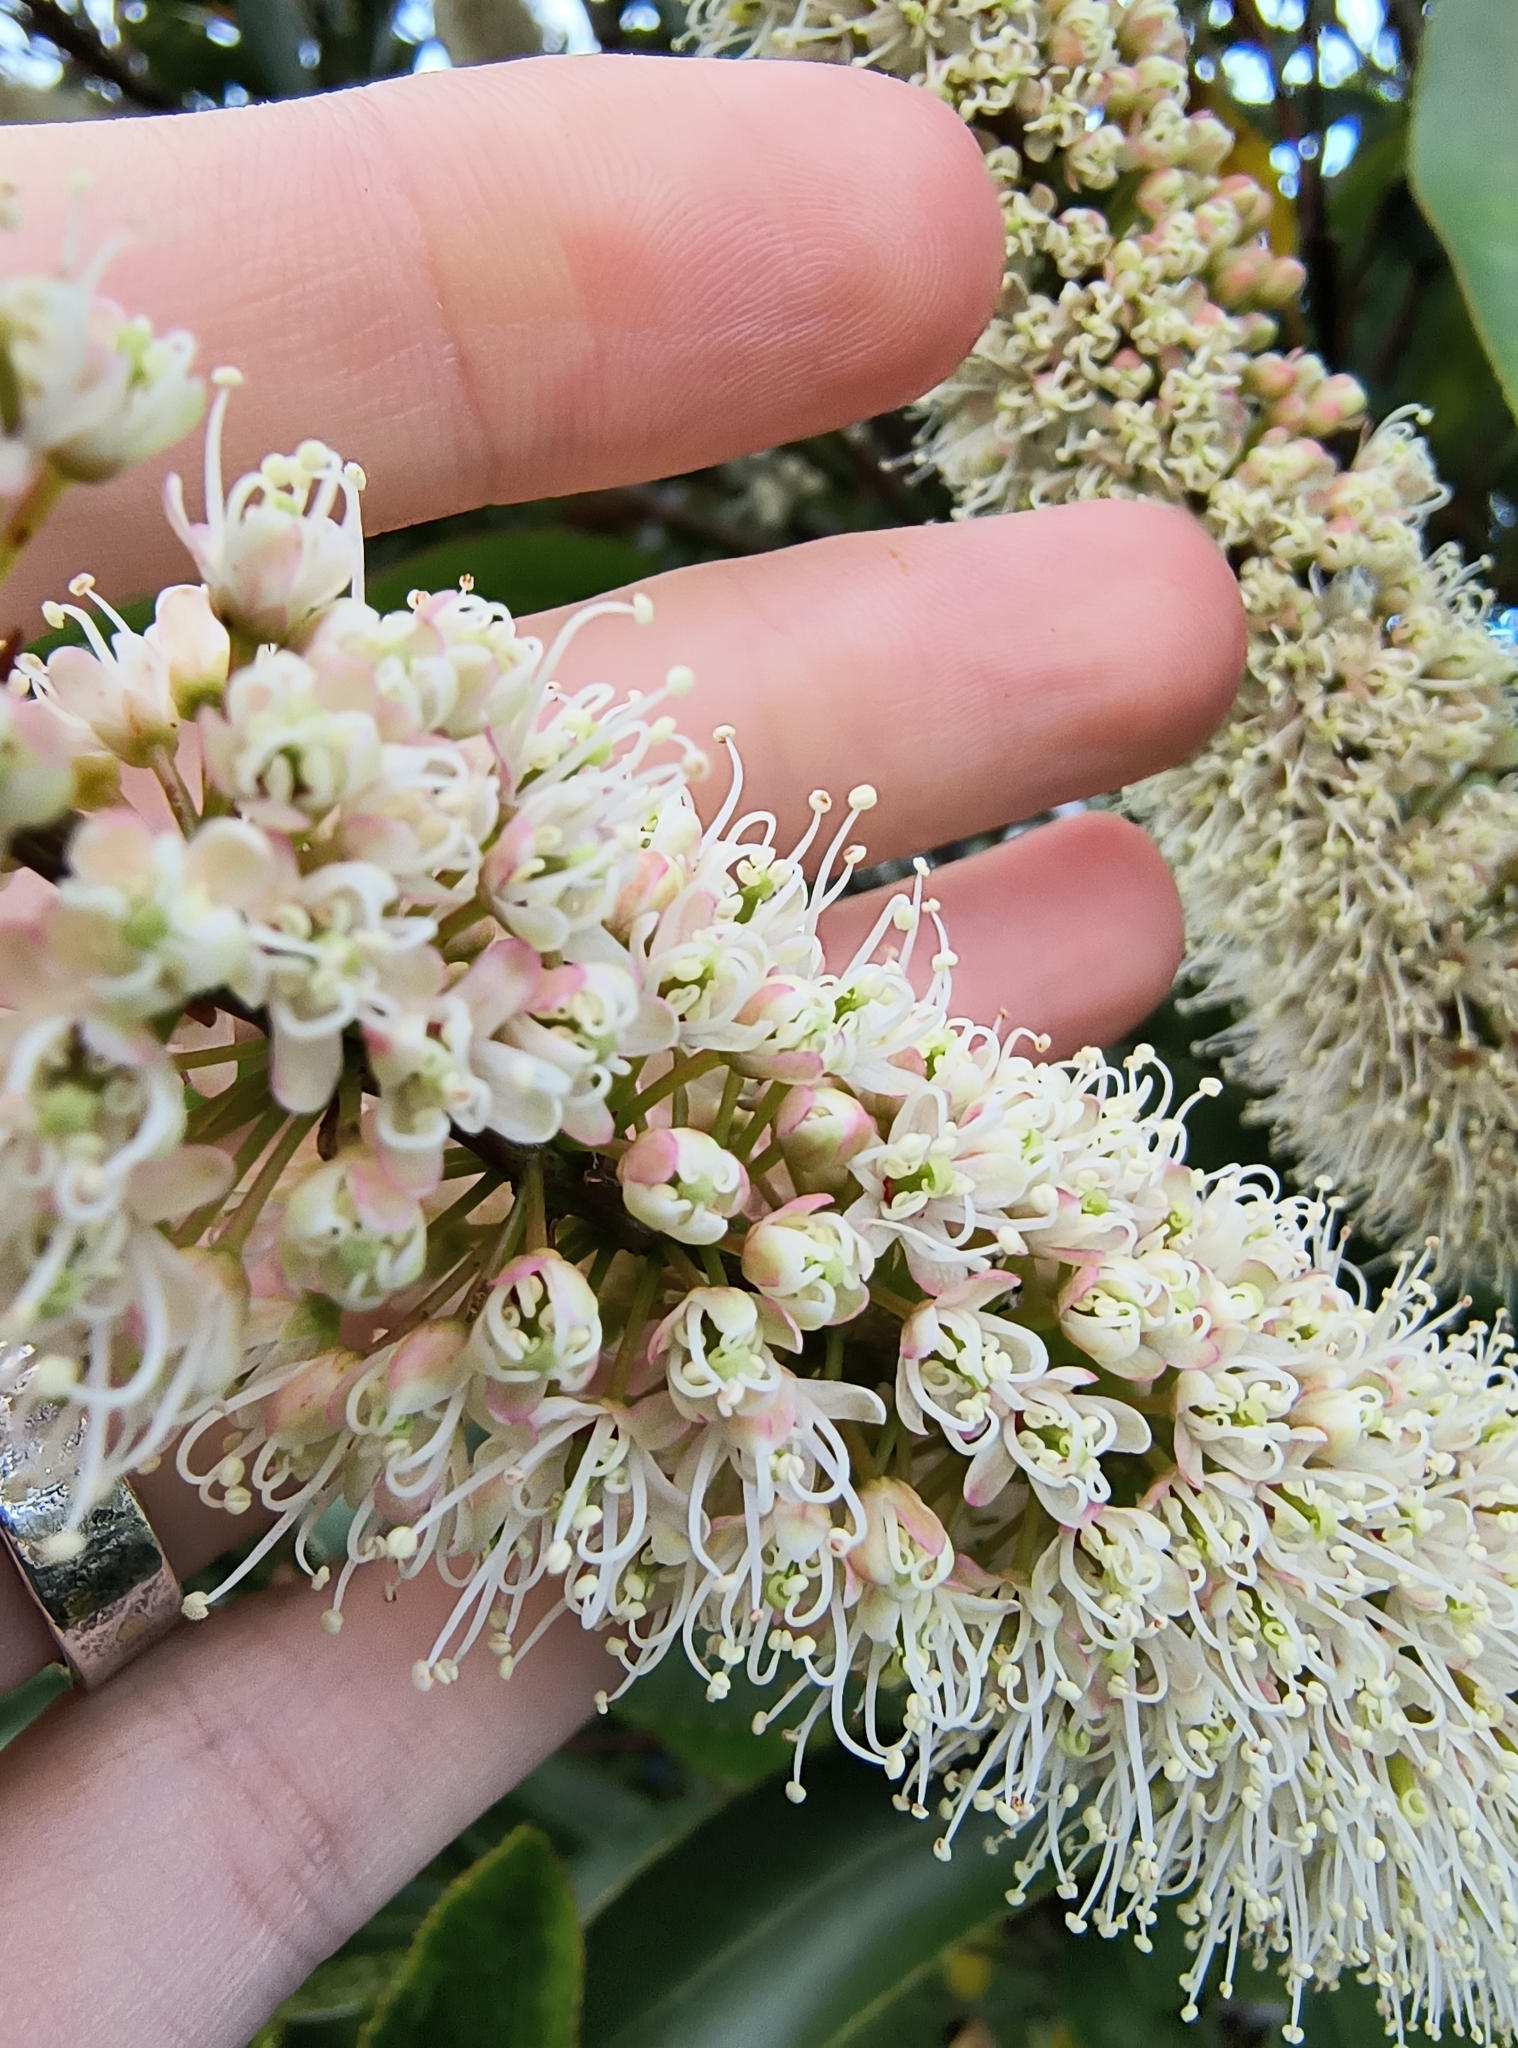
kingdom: Plantae
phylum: Tracheophyta
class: Magnoliopsida
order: Oxalidales
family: Cunoniaceae
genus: Cunonia
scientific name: Cunonia capensis
